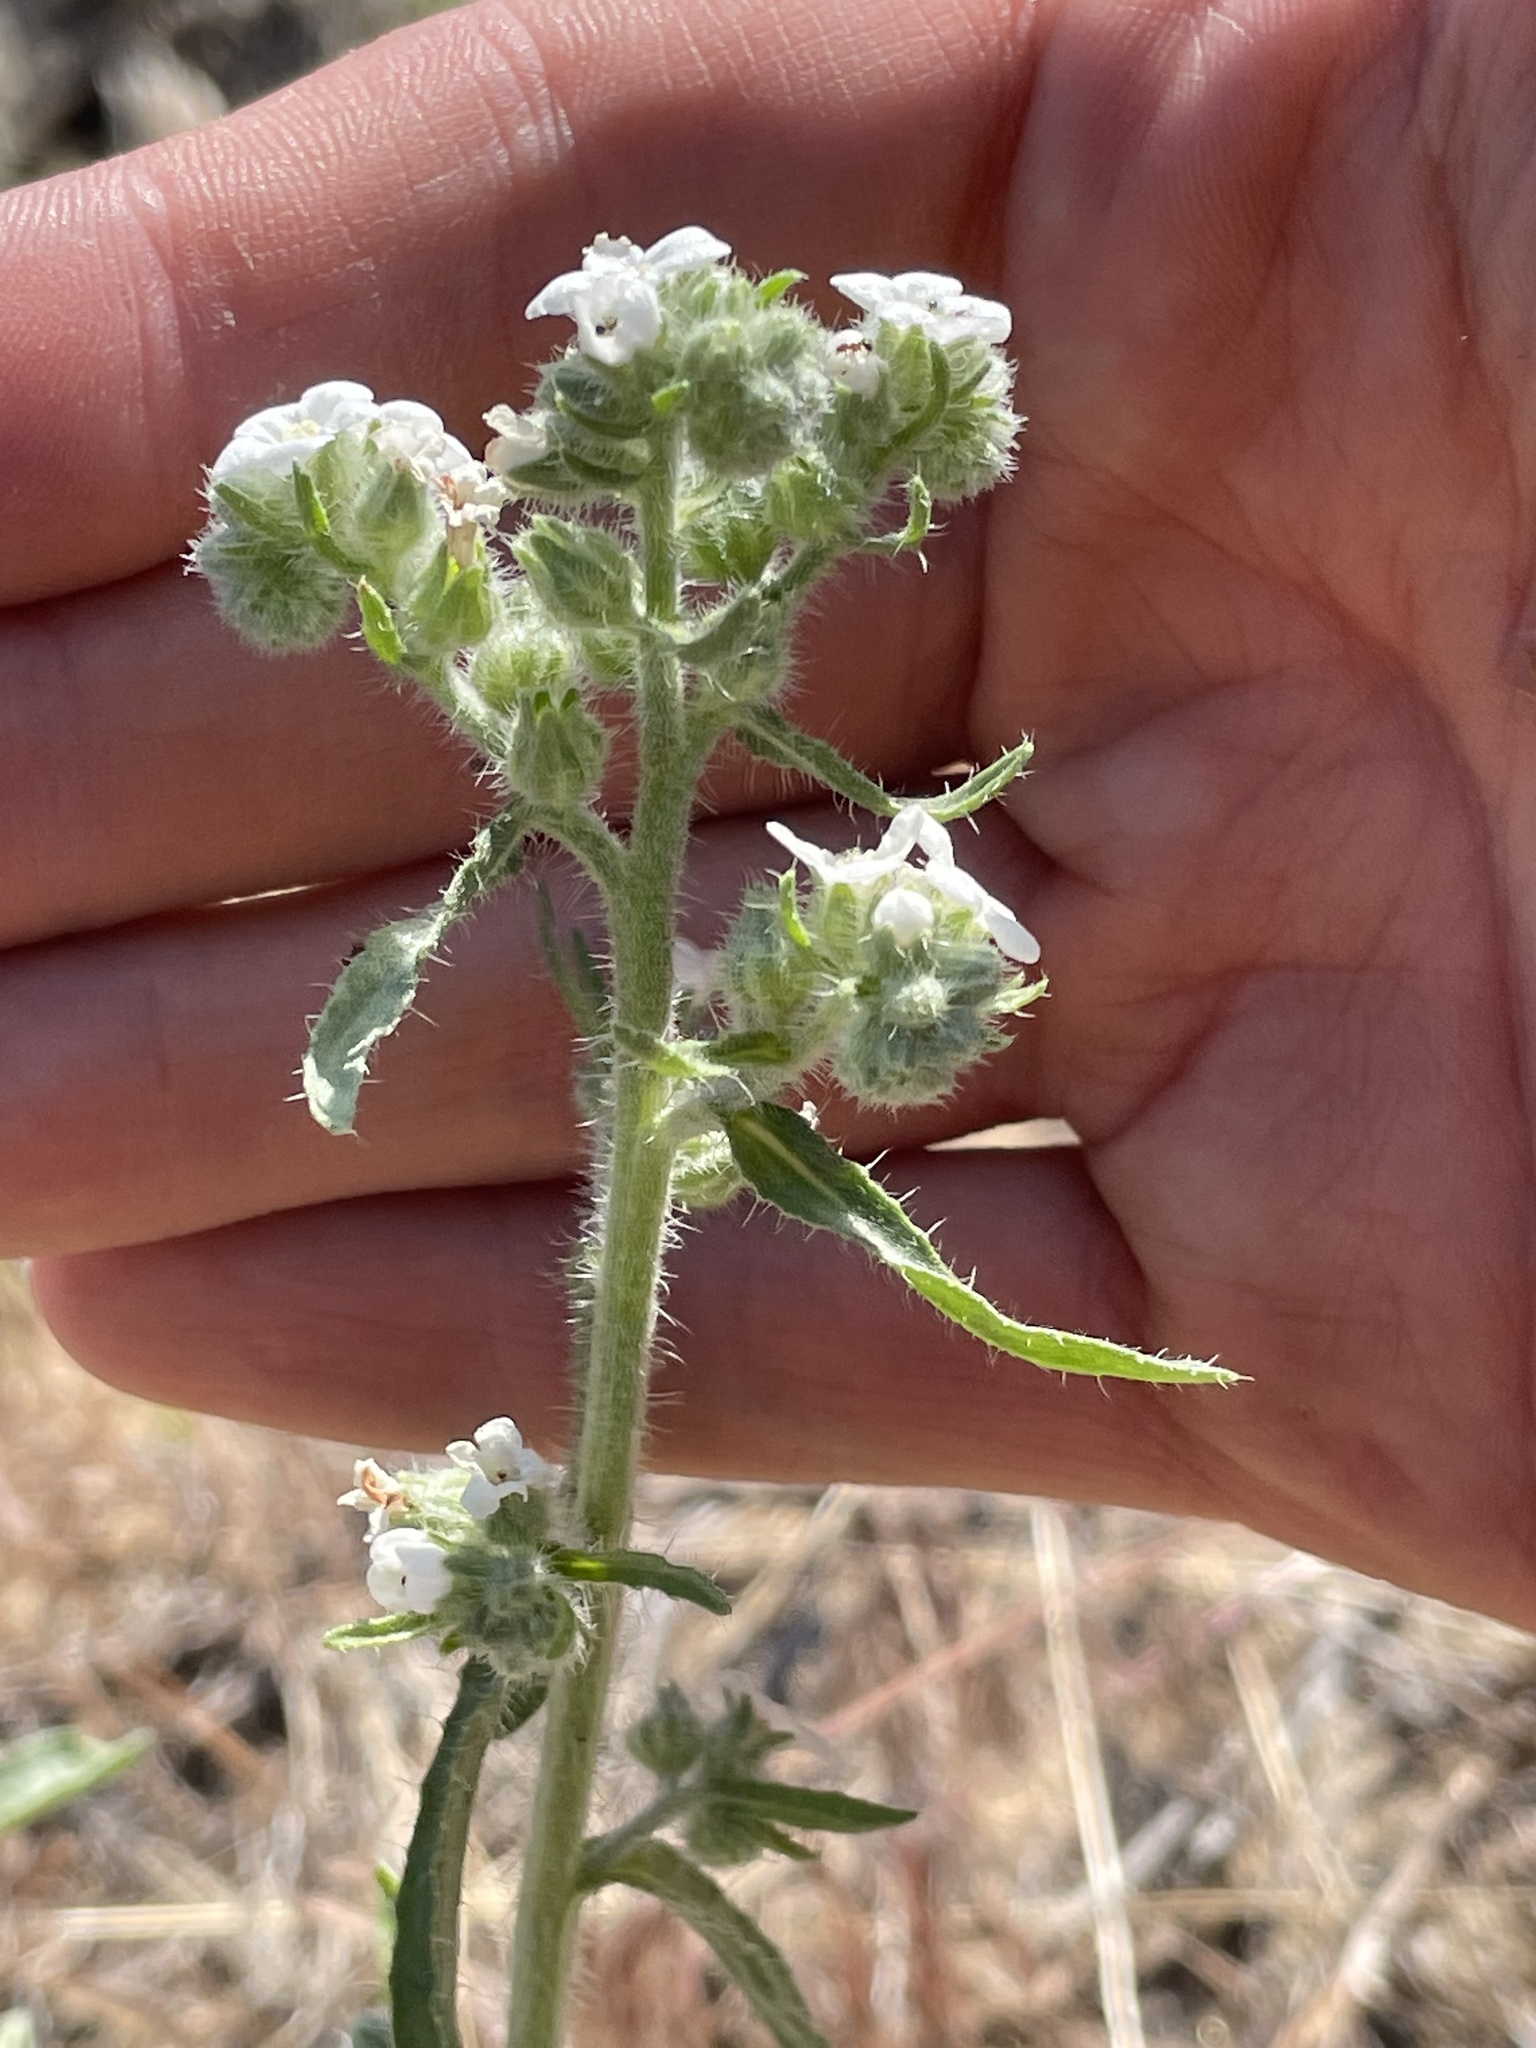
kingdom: Plantae
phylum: Tracheophyta
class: Magnoliopsida
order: Boraginales
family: Boraginaceae
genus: Oreocarya
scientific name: Oreocarya suffruticosa
